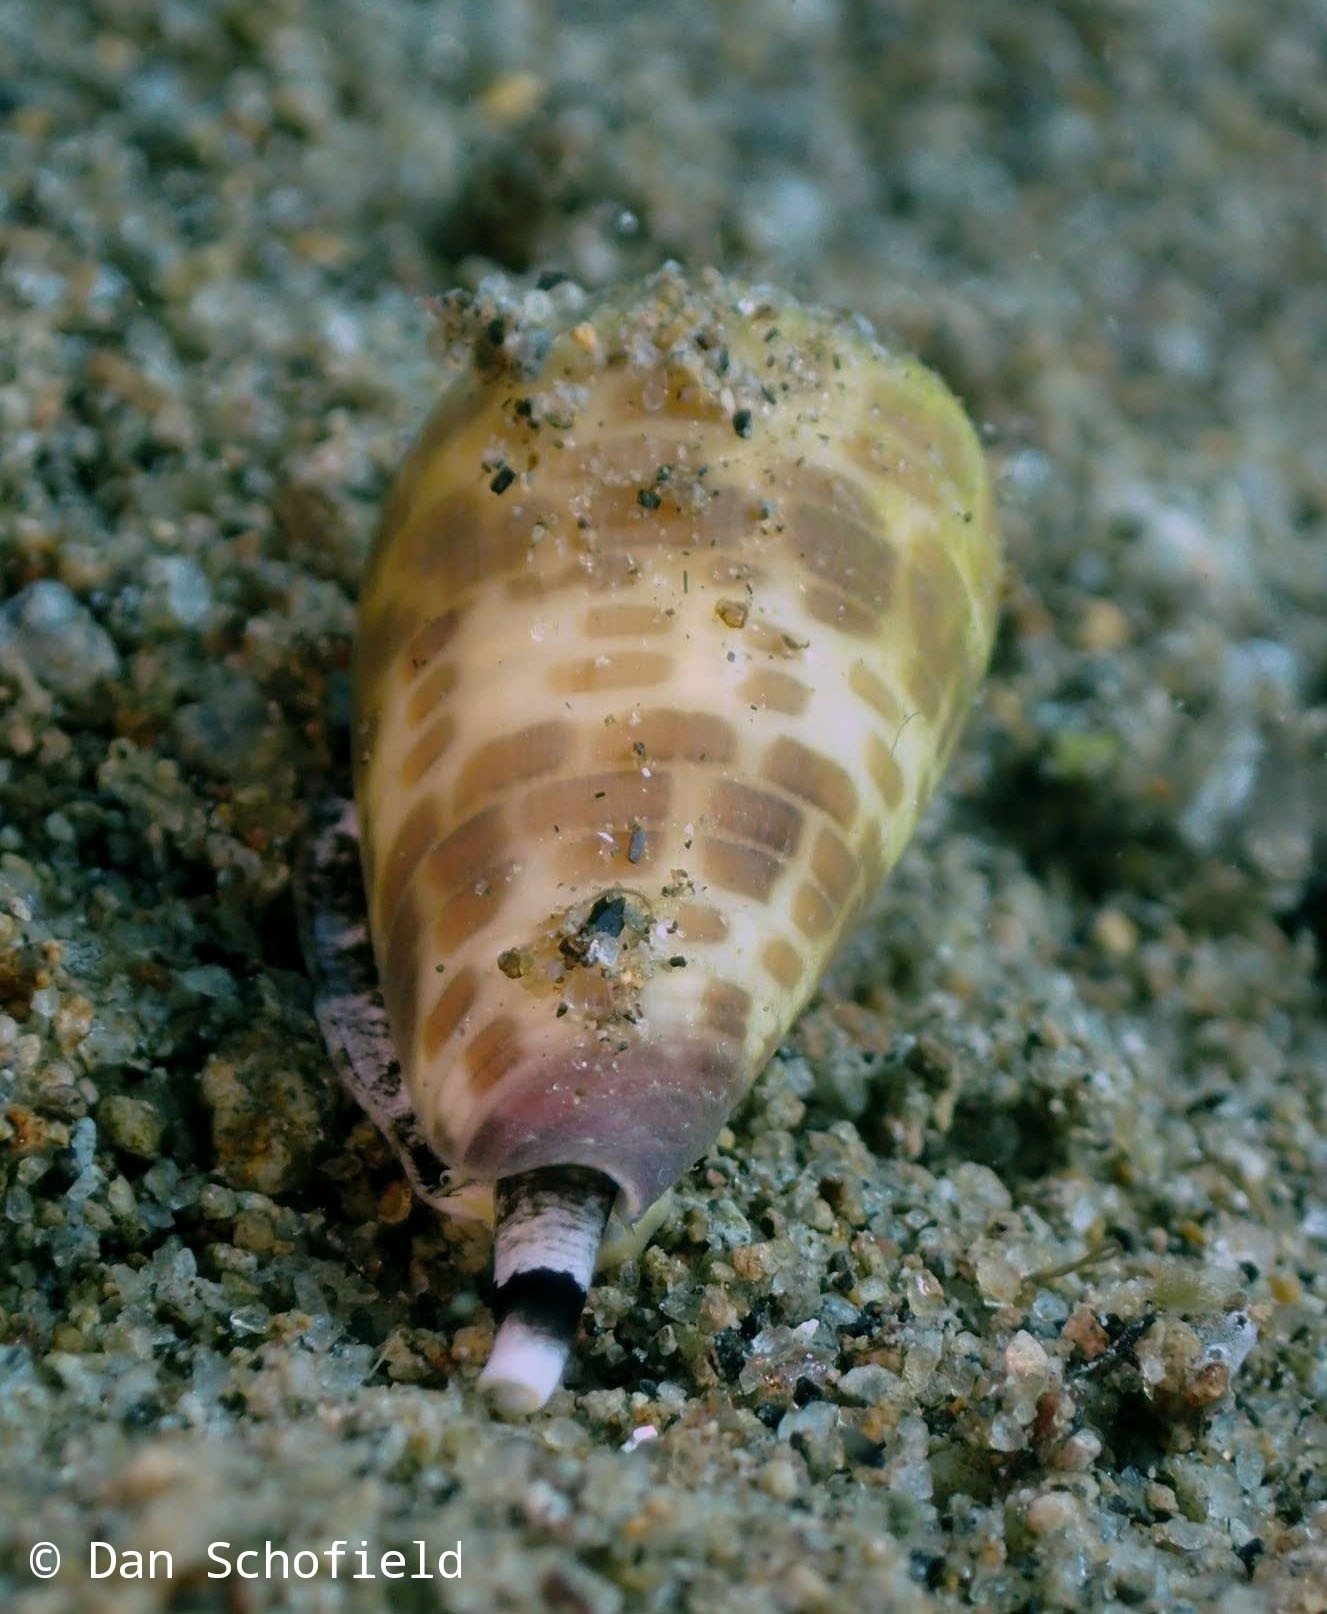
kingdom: Animalia
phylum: Mollusca
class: Gastropoda
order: Neogastropoda
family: Conidae
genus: Conus
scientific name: Conus tessulatus
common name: Tessellate cone
